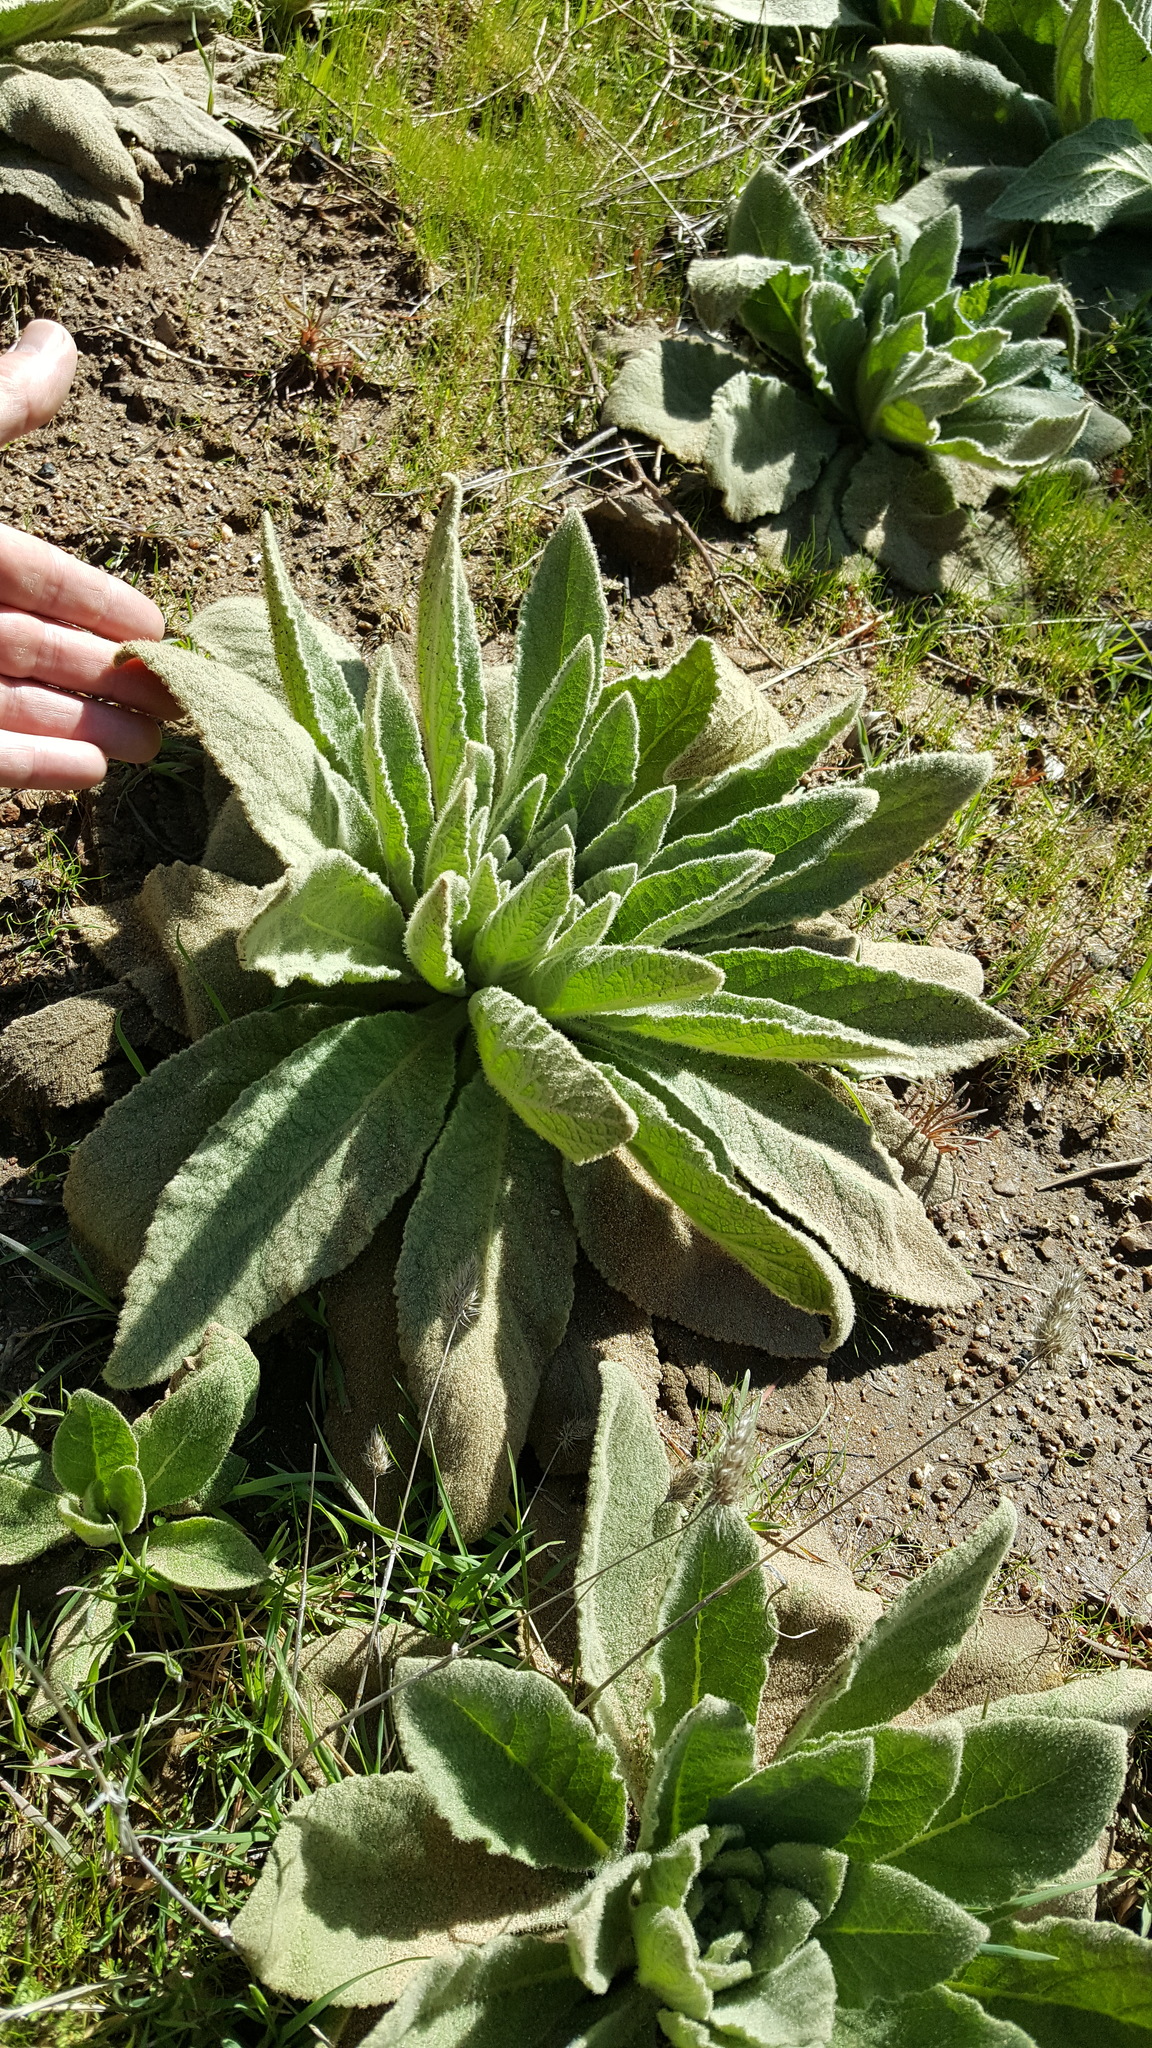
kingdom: Plantae
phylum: Tracheophyta
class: Magnoliopsida
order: Lamiales
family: Scrophulariaceae
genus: Verbascum
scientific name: Verbascum thapsus
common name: Common mullein
